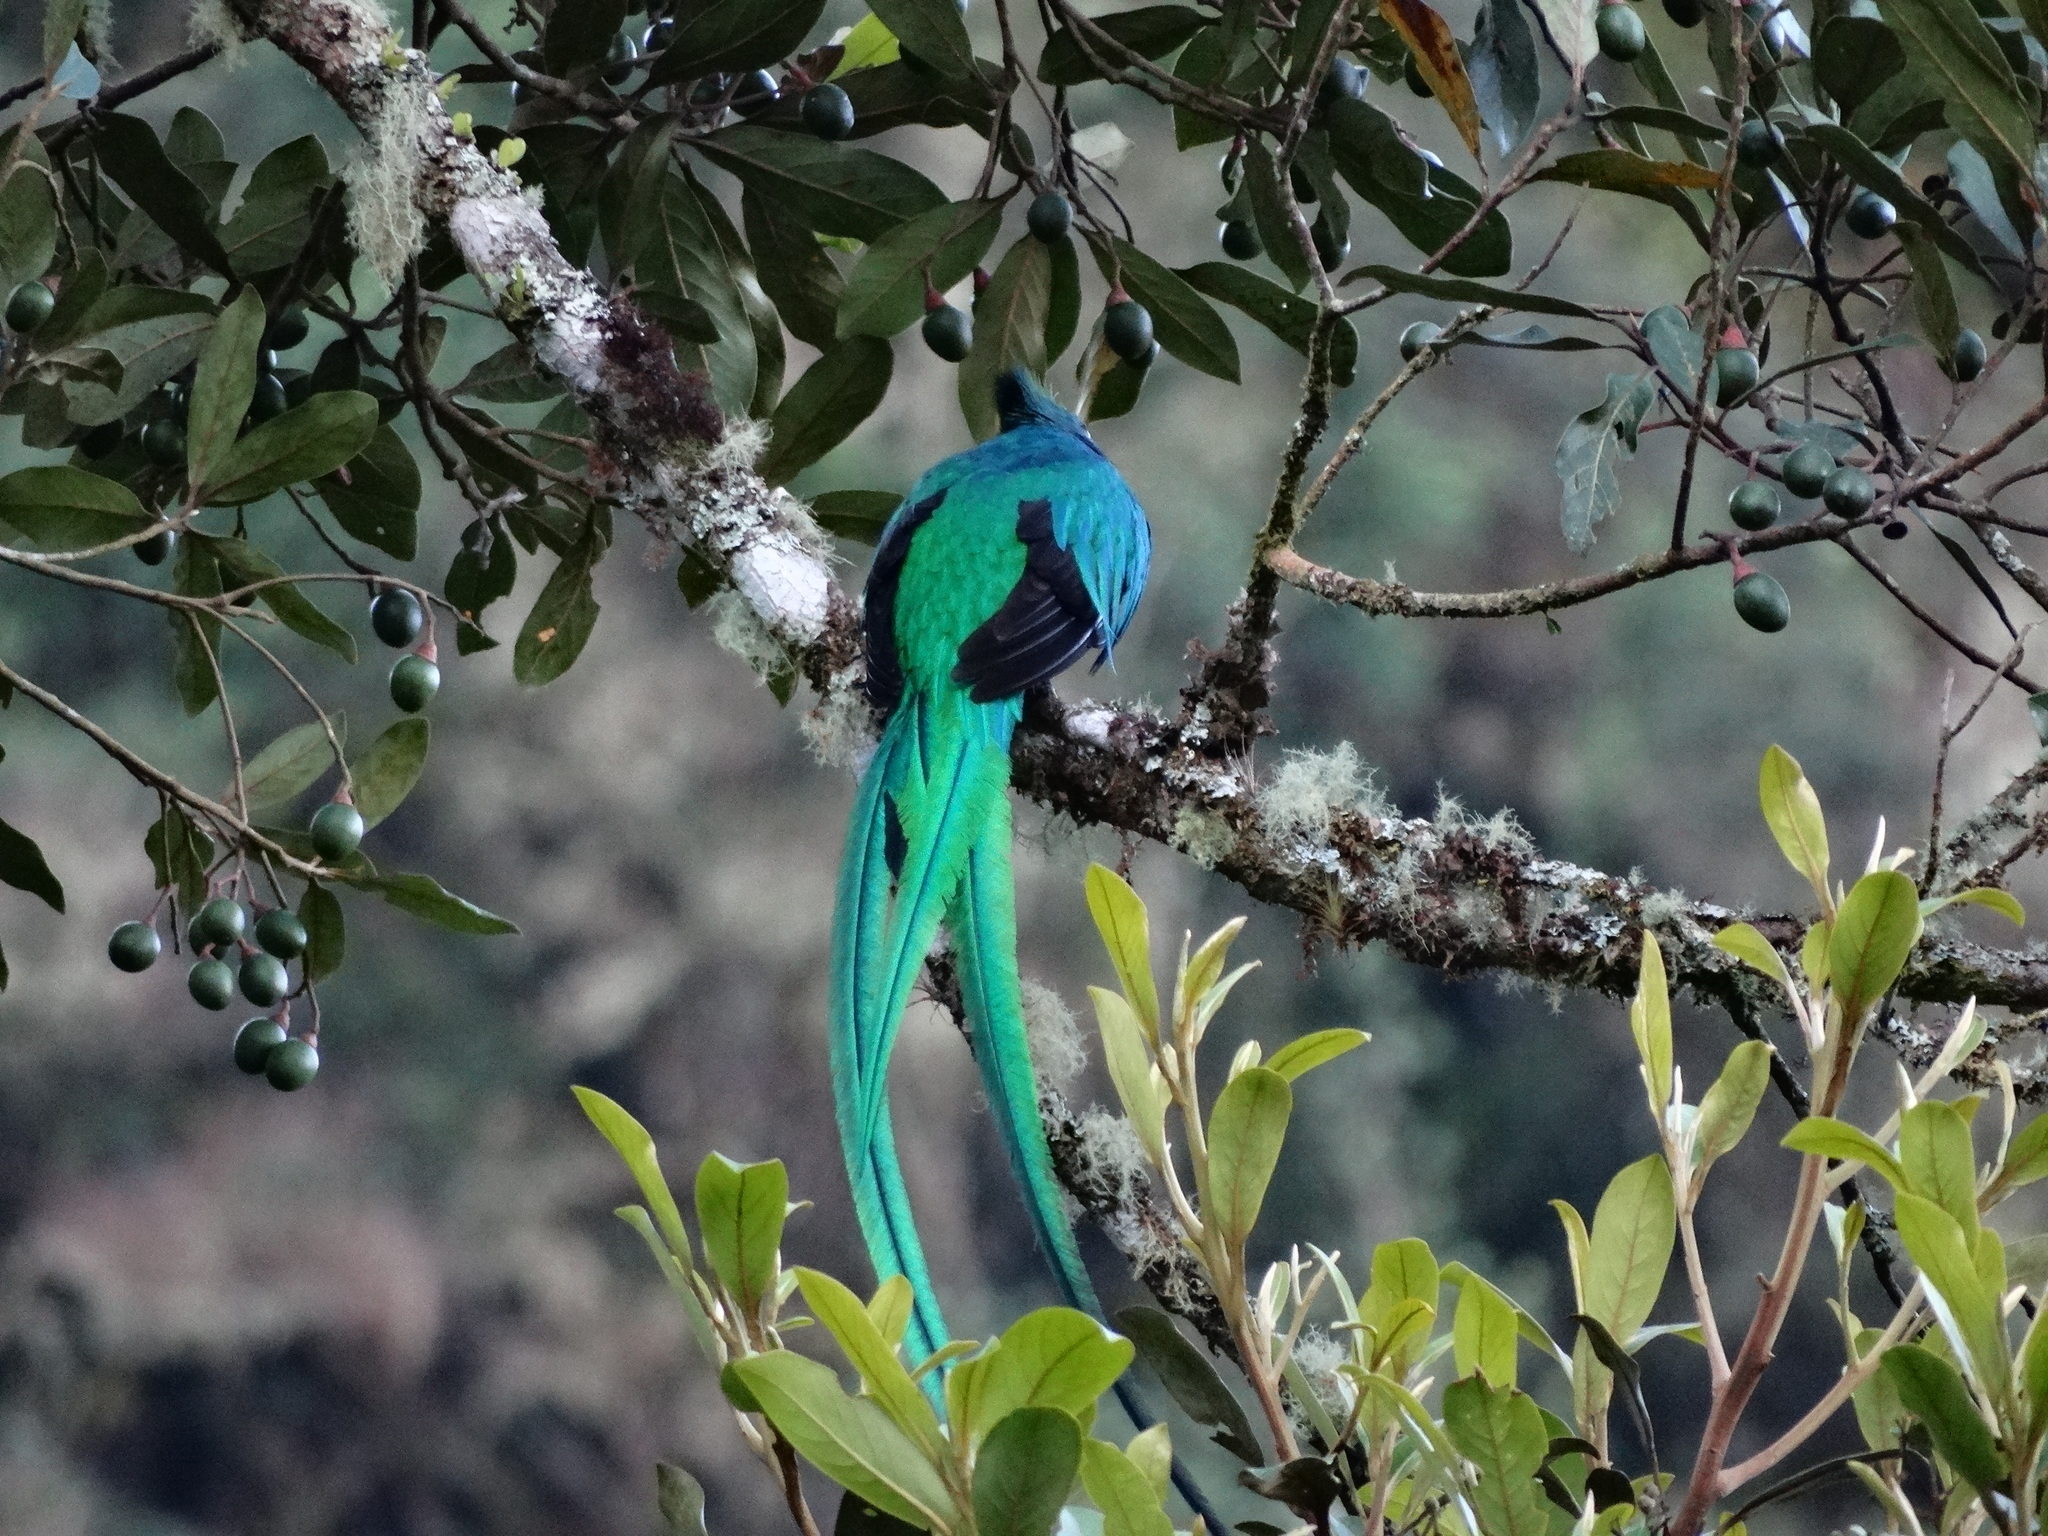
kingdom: Animalia
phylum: Chordata
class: Aves
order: Trogoniformes
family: Trogonidae
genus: Pharomachrus
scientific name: Pharomachrus mocinno
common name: Resplendent quetzal
